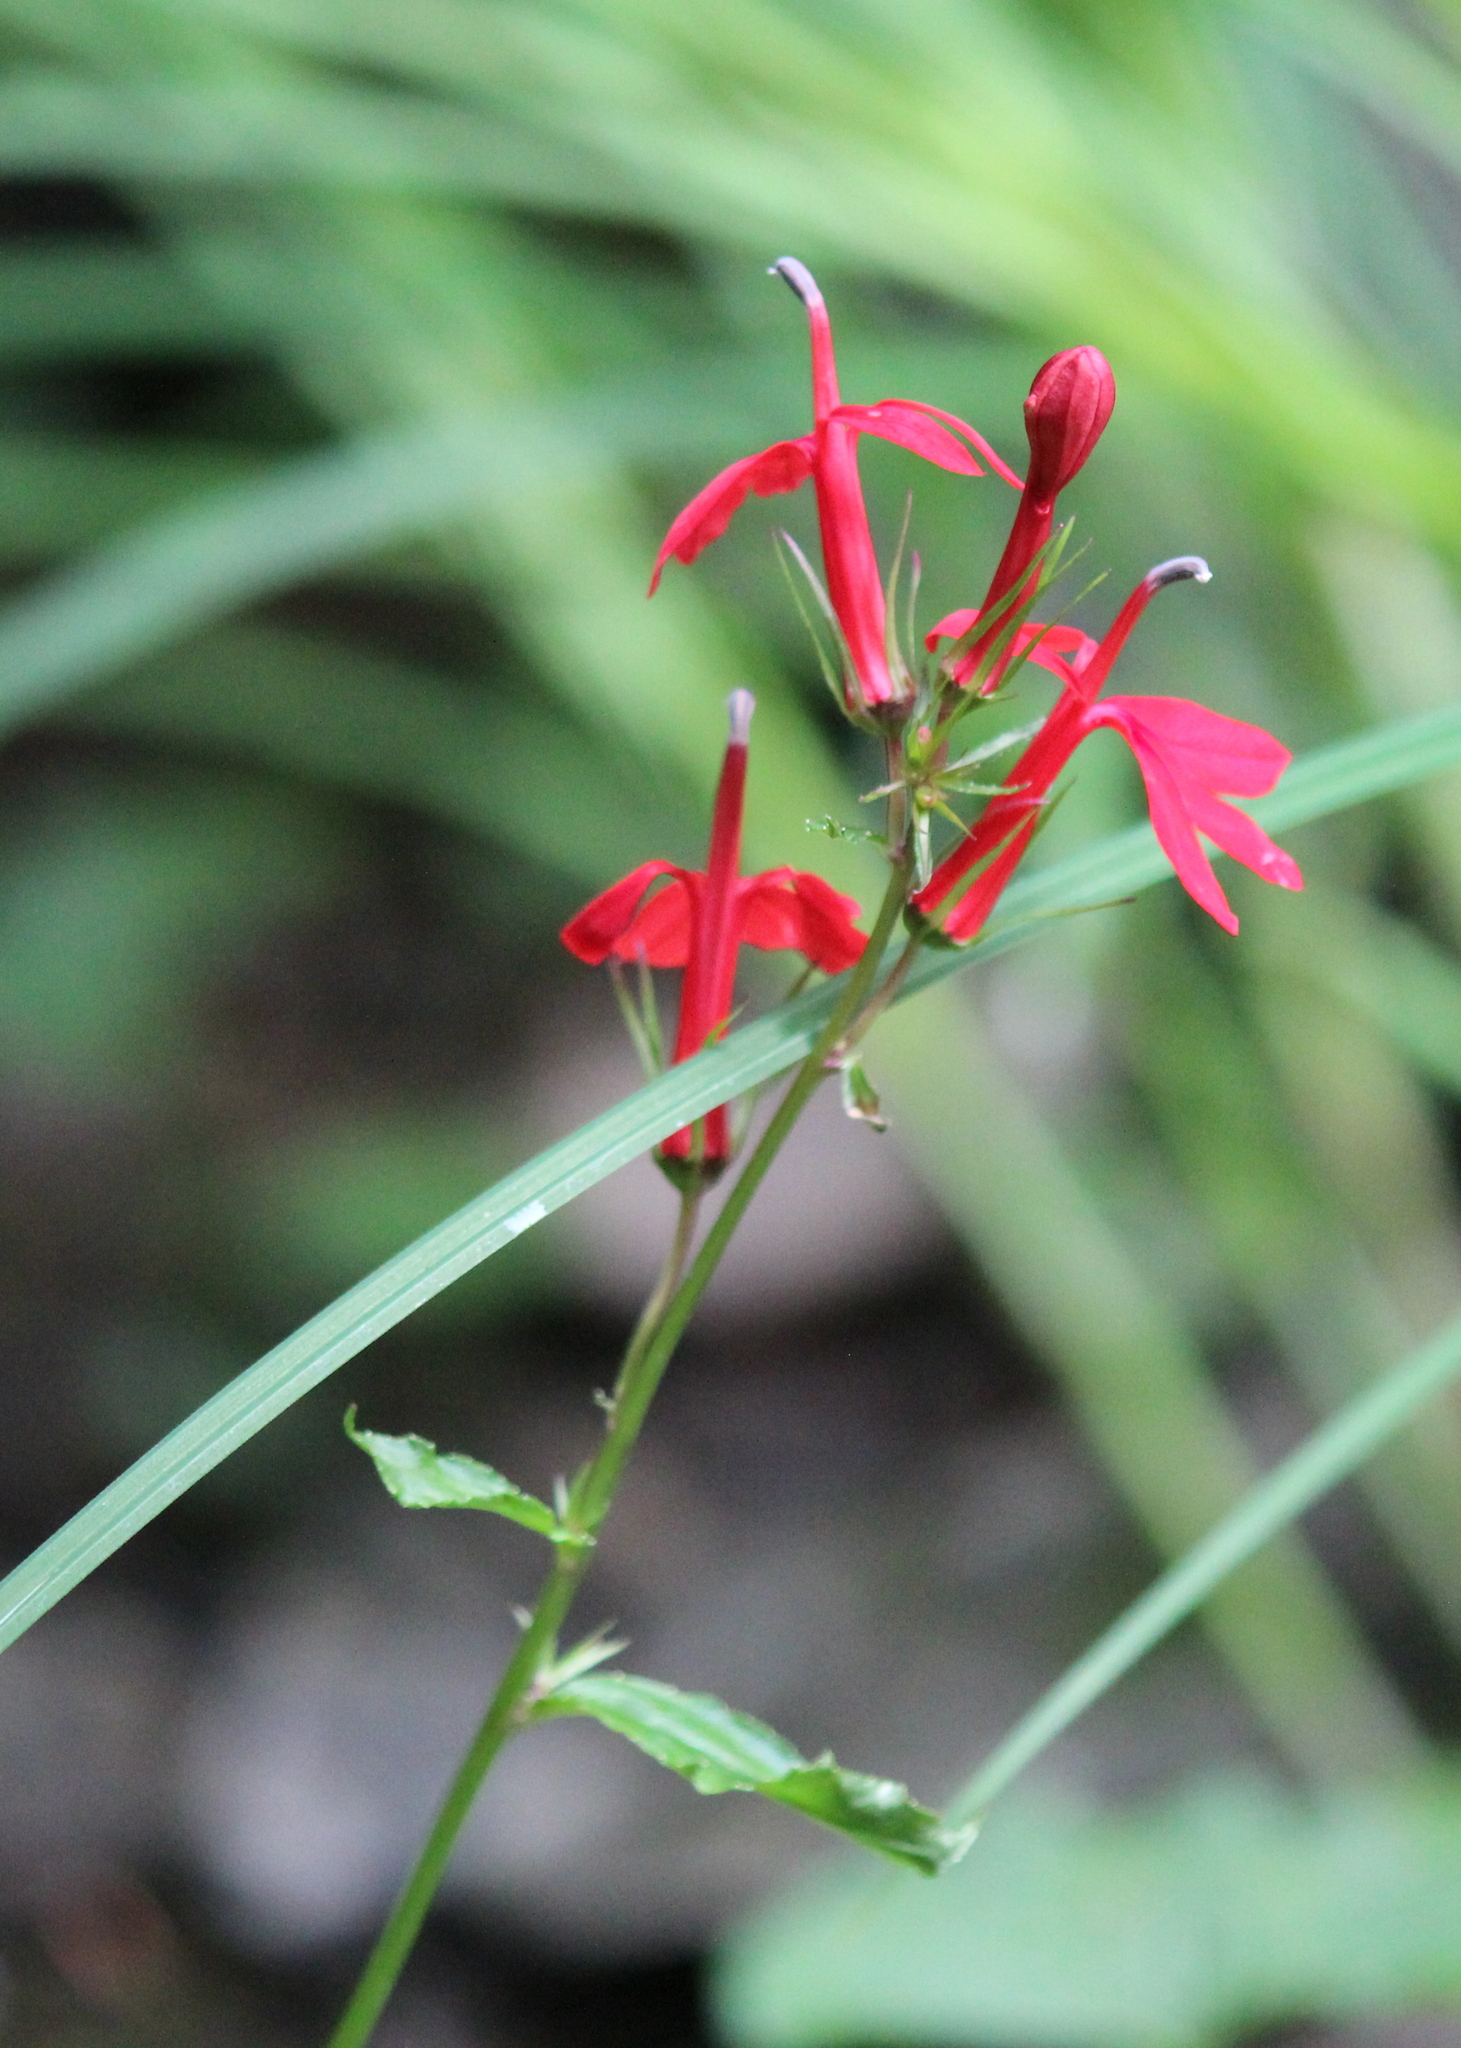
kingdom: Plantae
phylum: Tracheophyta
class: Magnoliopsida
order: Asterales
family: Campanulaceae
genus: Lobelia
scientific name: Lobelia cardinalis
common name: Cardinal flower
